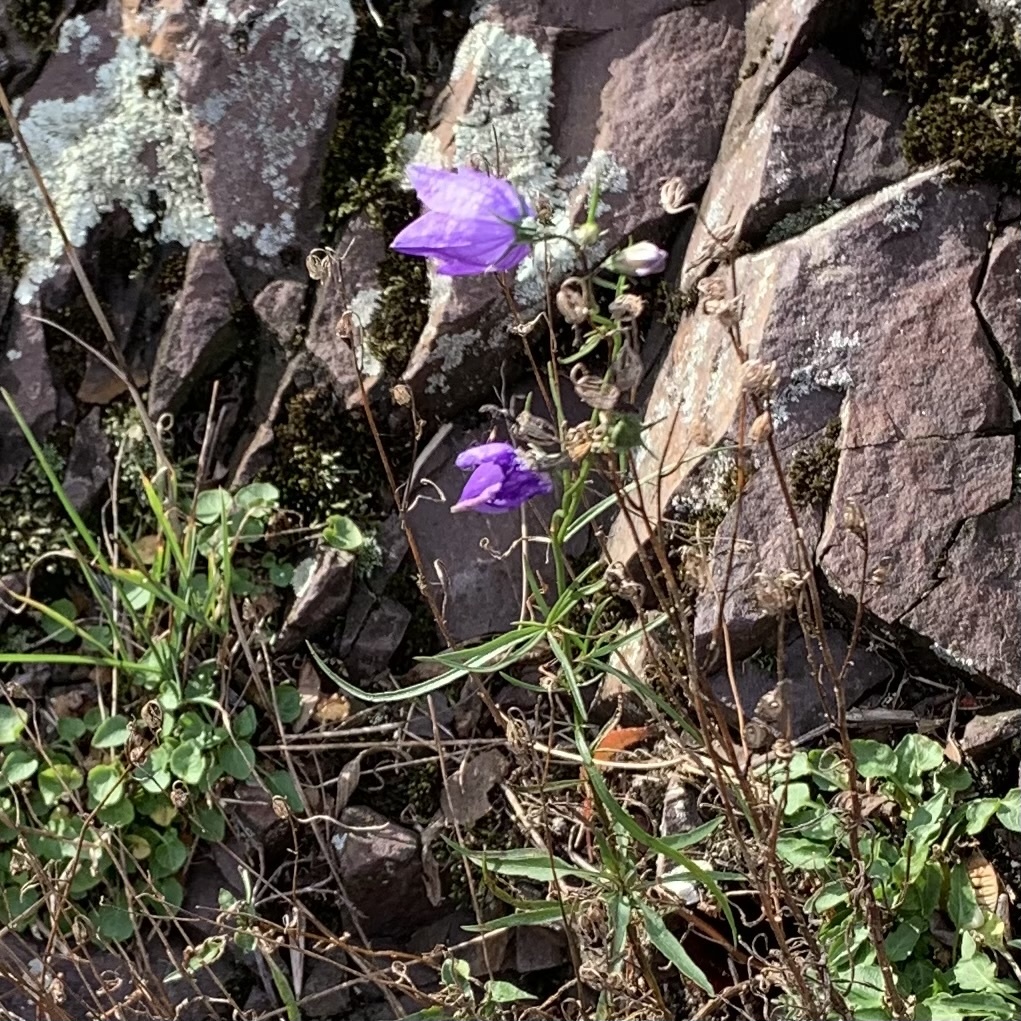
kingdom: Plantae
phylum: Tracheophyta
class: Magnoliopsida
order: Asterales
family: Campanulaceae
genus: Campanula
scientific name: Campanula intercedens
